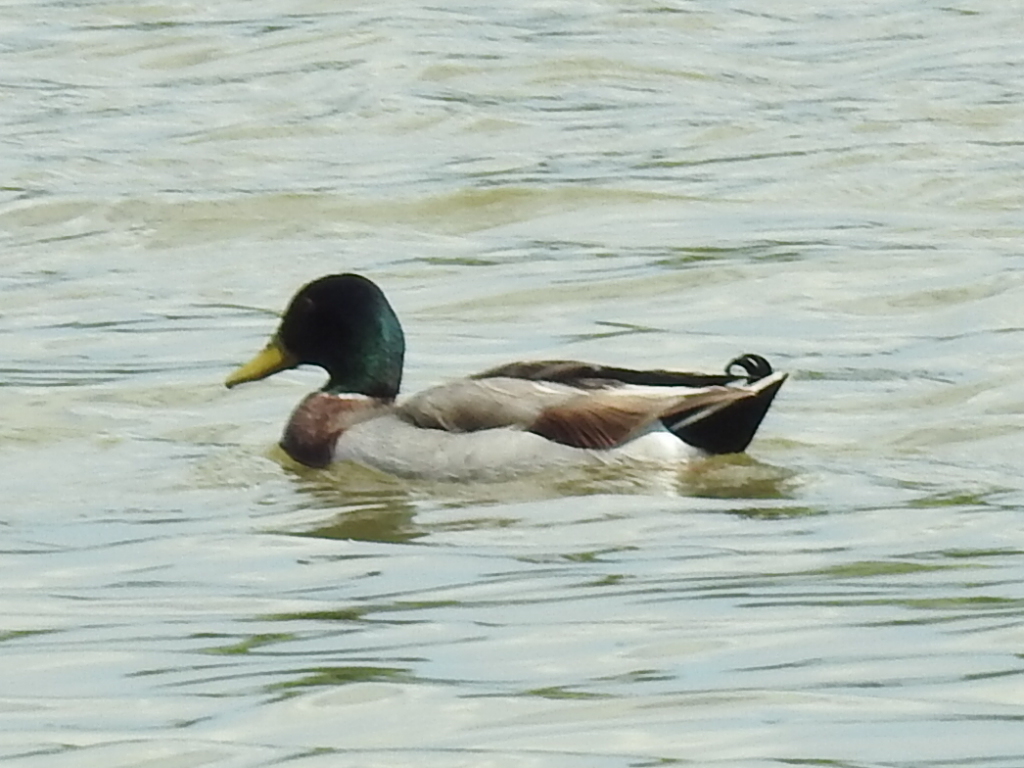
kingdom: Animalia
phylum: Chordata
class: Aves
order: Anseriformes
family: Anatidae
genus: Anas
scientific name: Anas platyrhynchos
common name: Mallard
